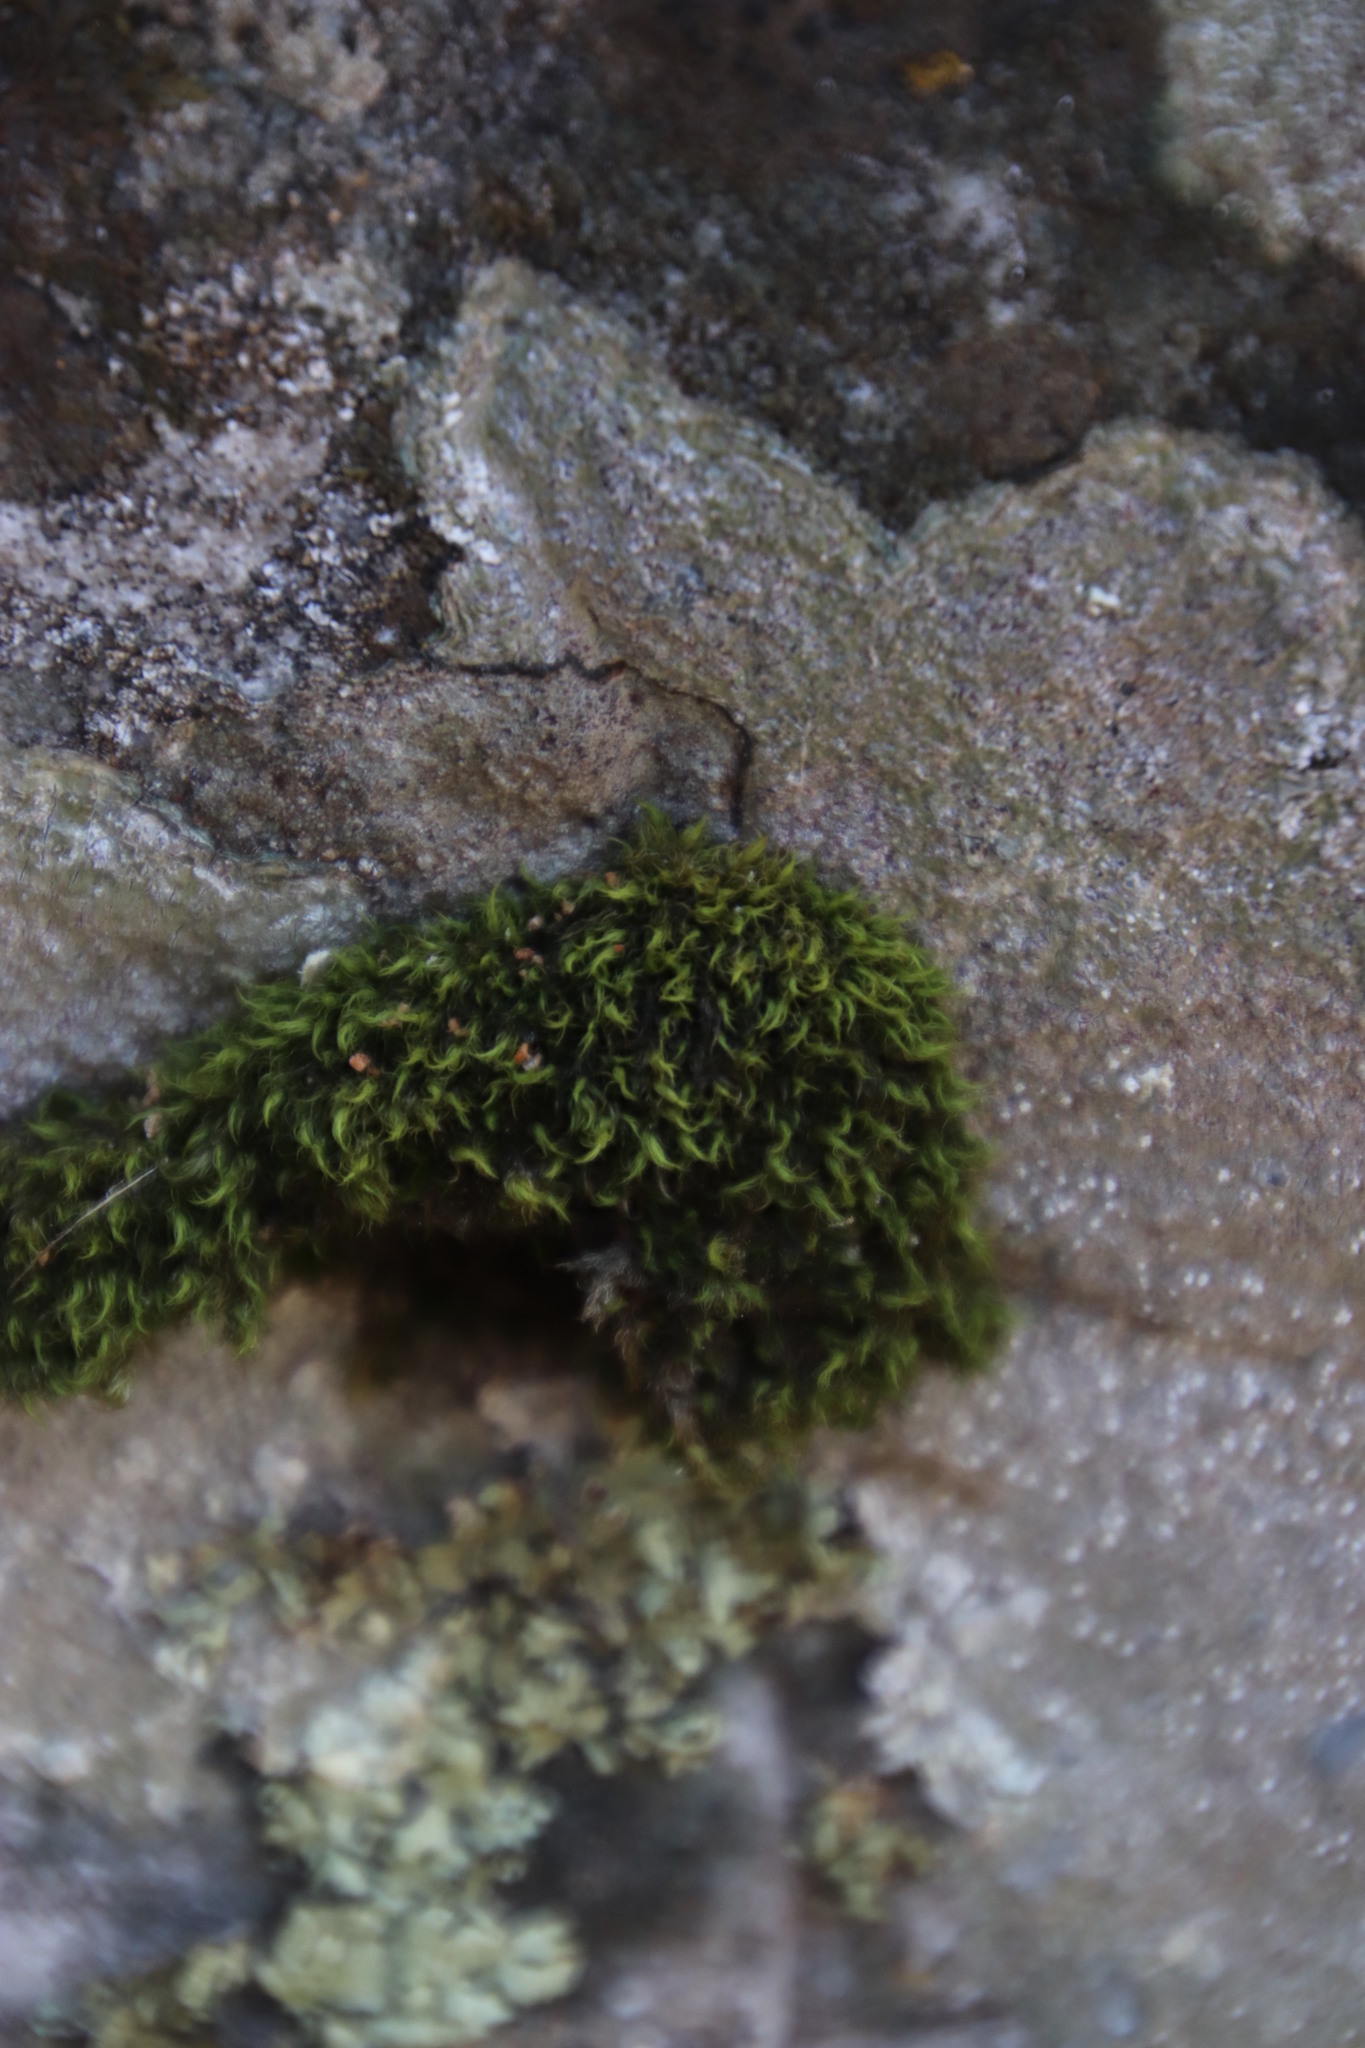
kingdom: Plantae
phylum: Bryophyta
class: Bryopsida
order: Dicranales
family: Dicranaceae
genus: Leucoloma
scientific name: Leucoloma sprengelianum
